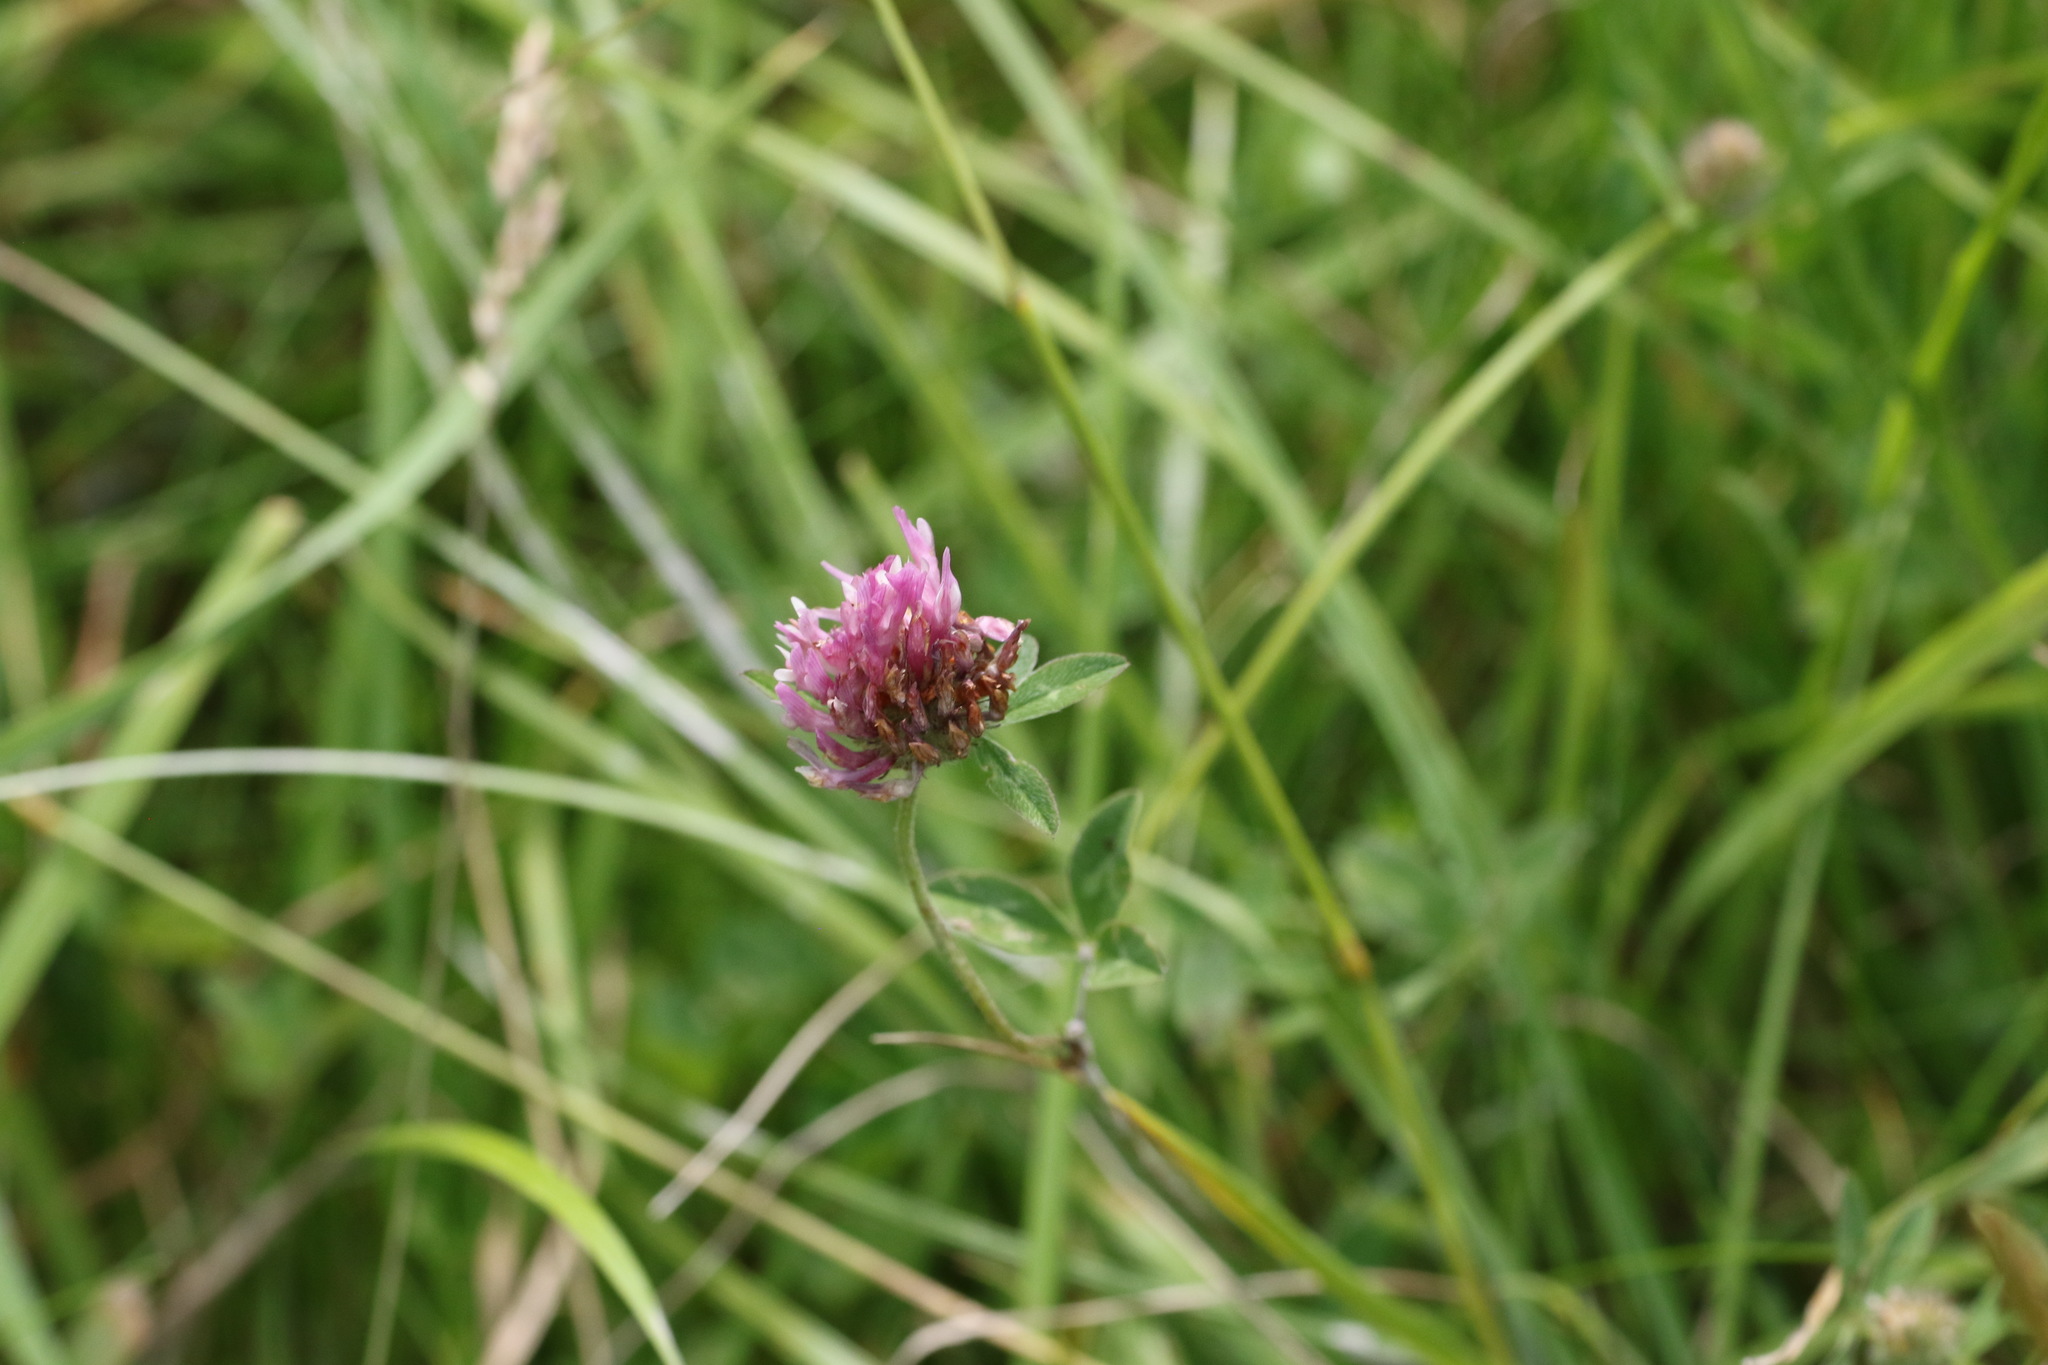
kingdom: Plantae
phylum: Tracheophyta
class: Magnoliopsida
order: Fabales
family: Fabaceae
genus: Trifolium
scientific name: Trifolium pratense
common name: Red clover
